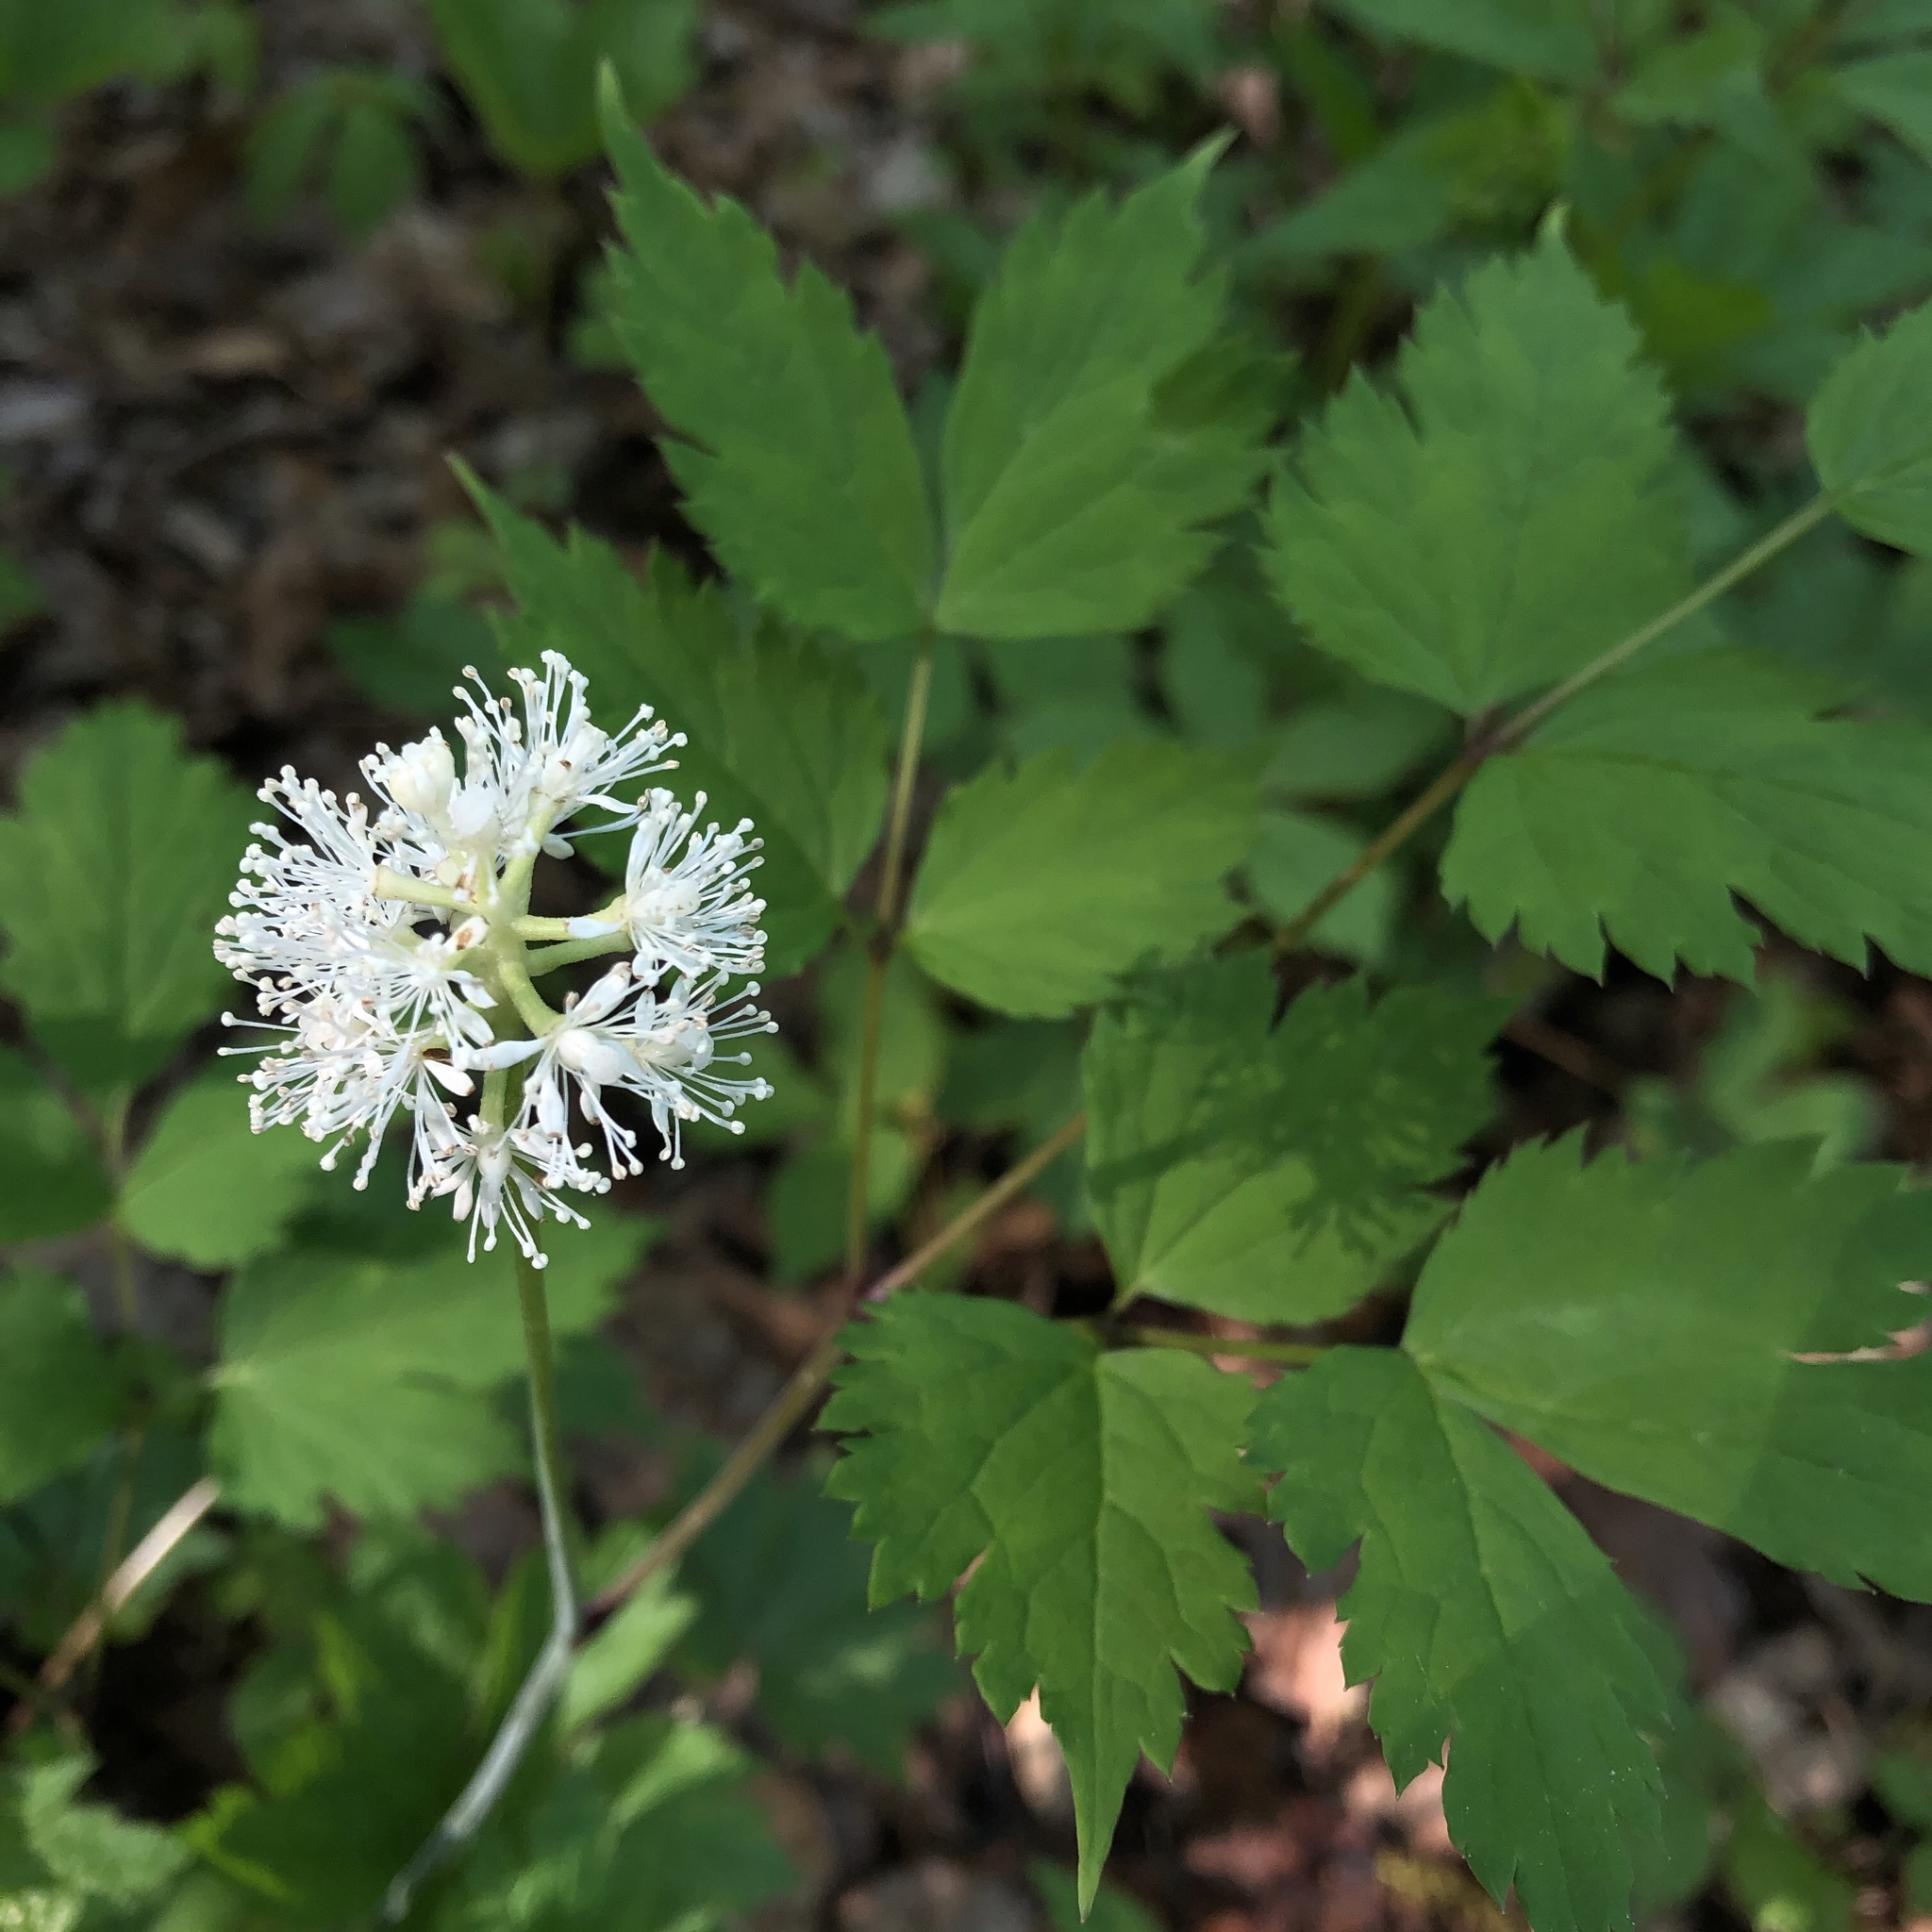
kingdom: Plantae
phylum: Tracheophyta
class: Magnoliopsida
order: Ranunculales
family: Ranunculaceae
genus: Actaea
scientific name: Actaea pachypoda
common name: Doll's-eyes
